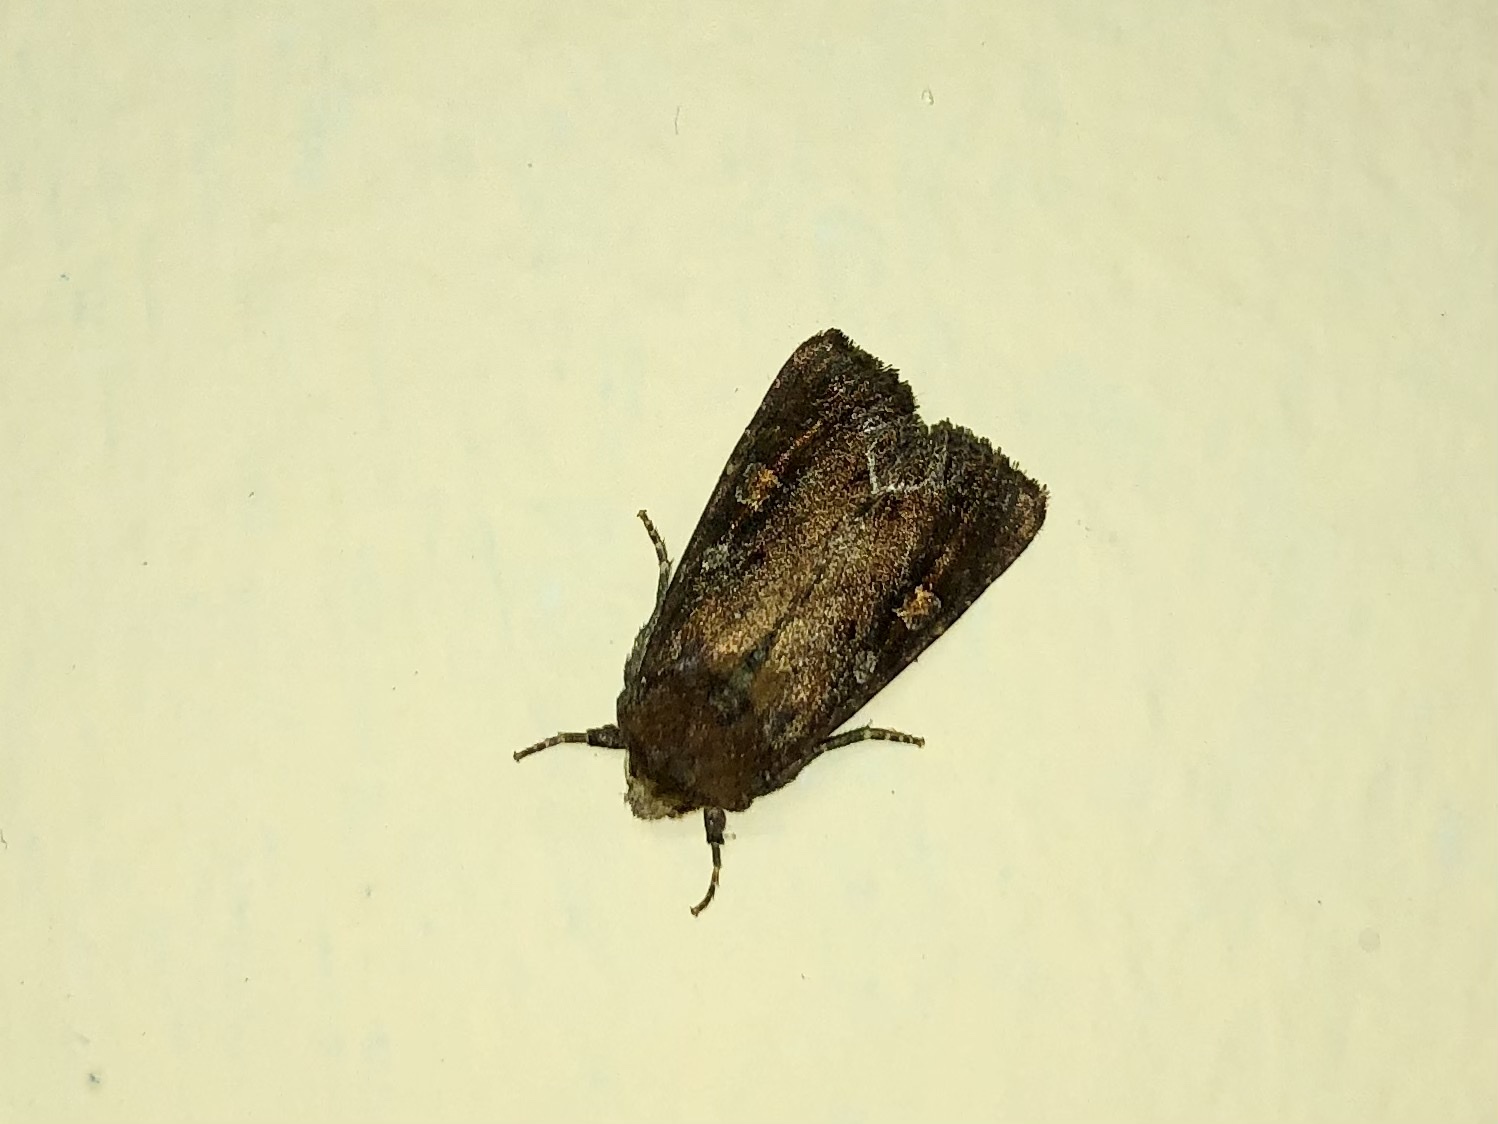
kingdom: Animalia
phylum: Arthropoda
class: Insecta
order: Lepidoptera
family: Noctuidae
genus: Lacanobia
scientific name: Lacanobia oleracea
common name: Bright-line brown-eye
